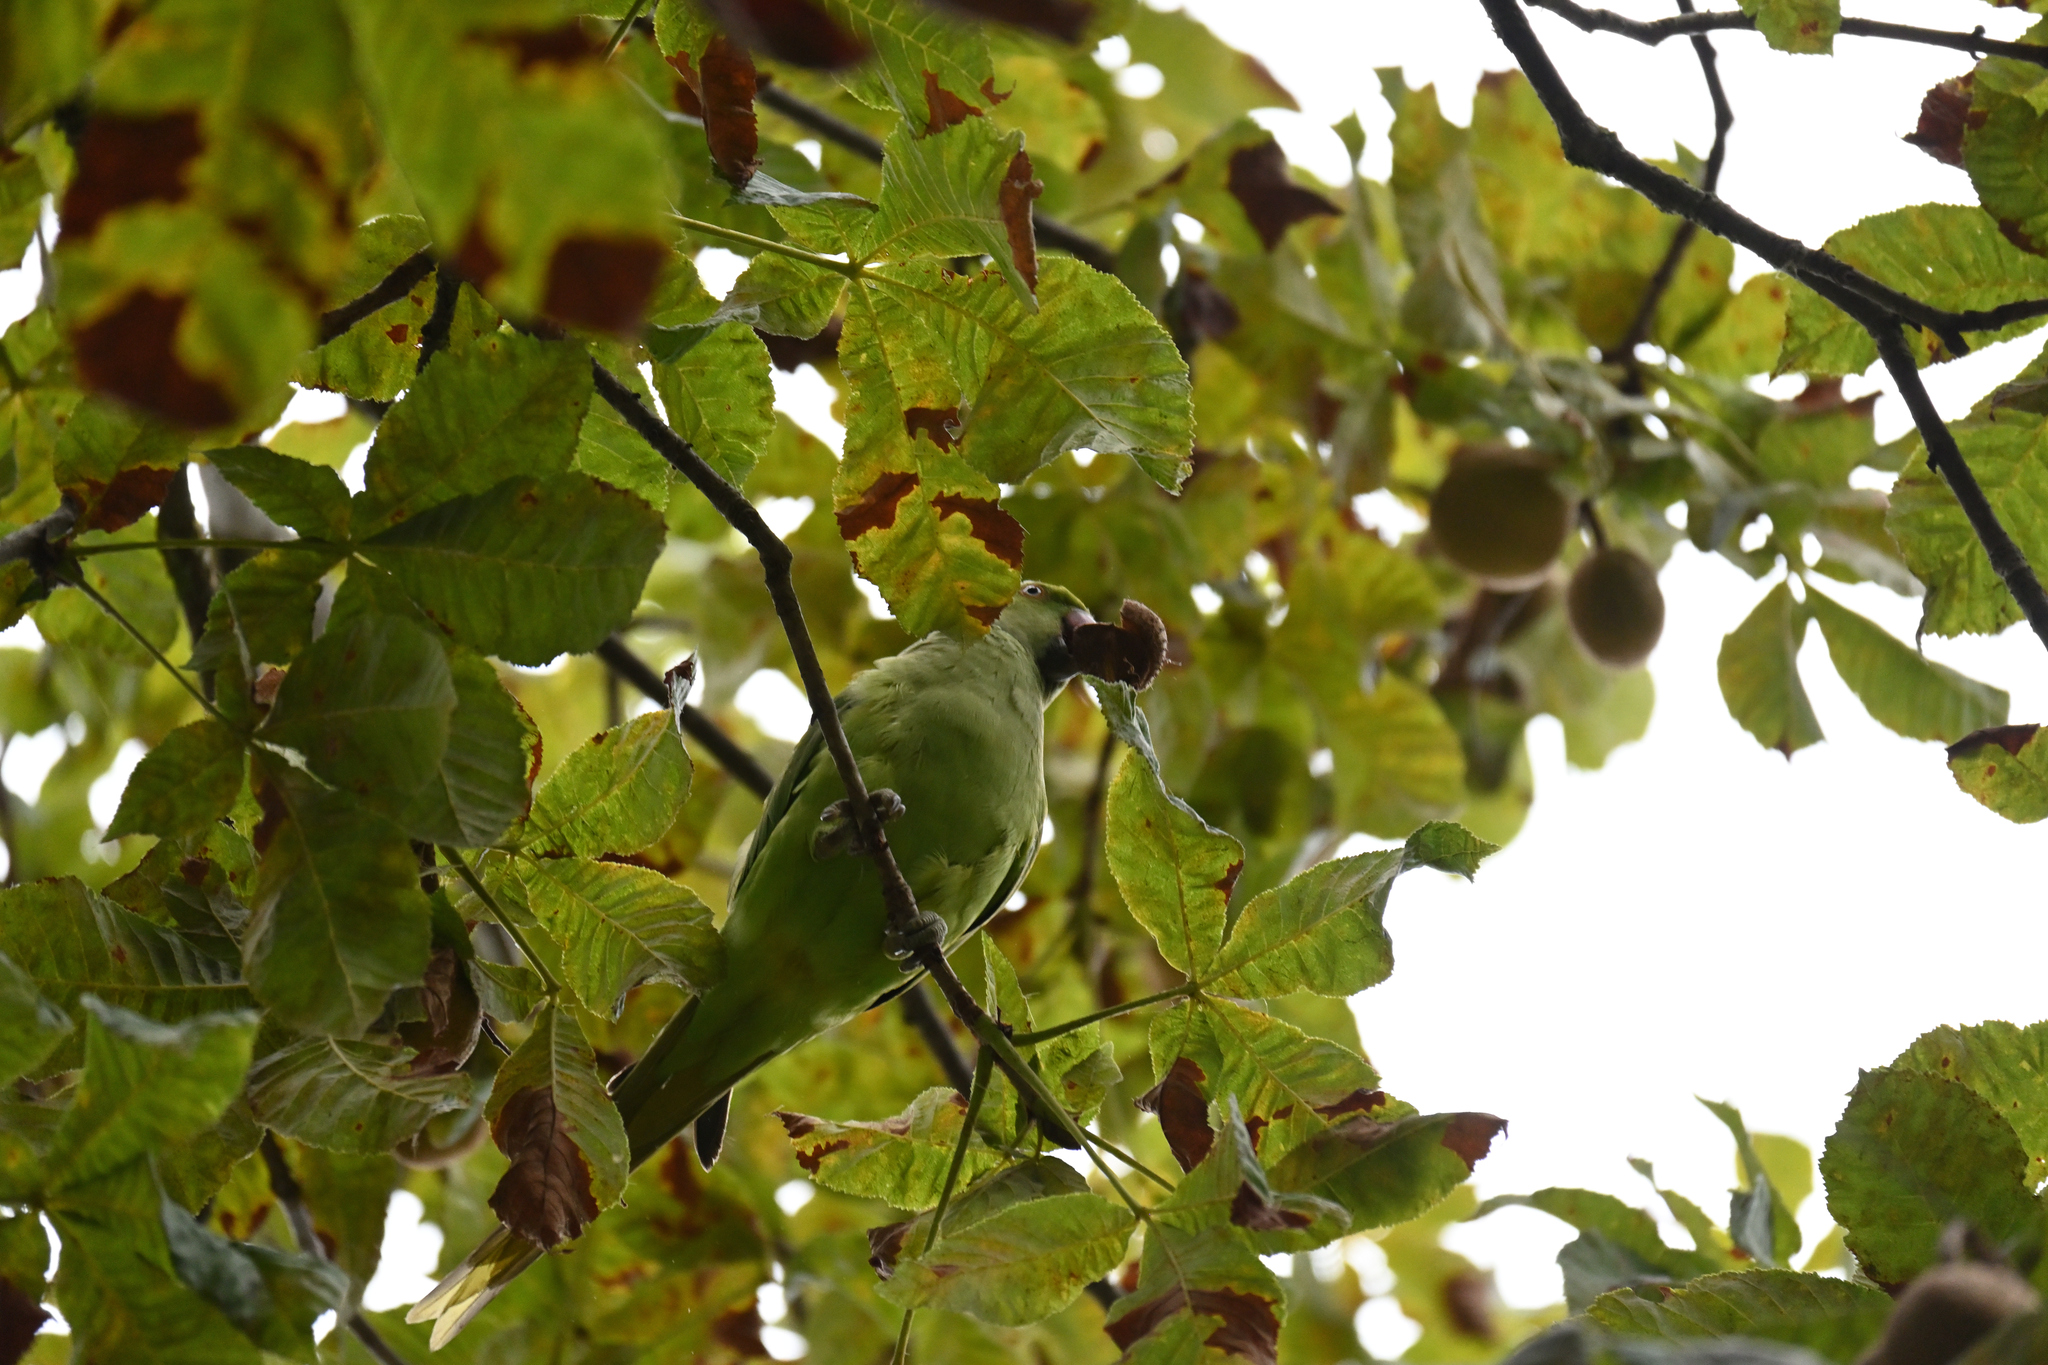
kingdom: Animalia
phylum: Chordata
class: Aves
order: Psittaciformes
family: Psittacidae
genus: Psittacula
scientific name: Psittacula krameri
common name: Rose-ringed parakeet
